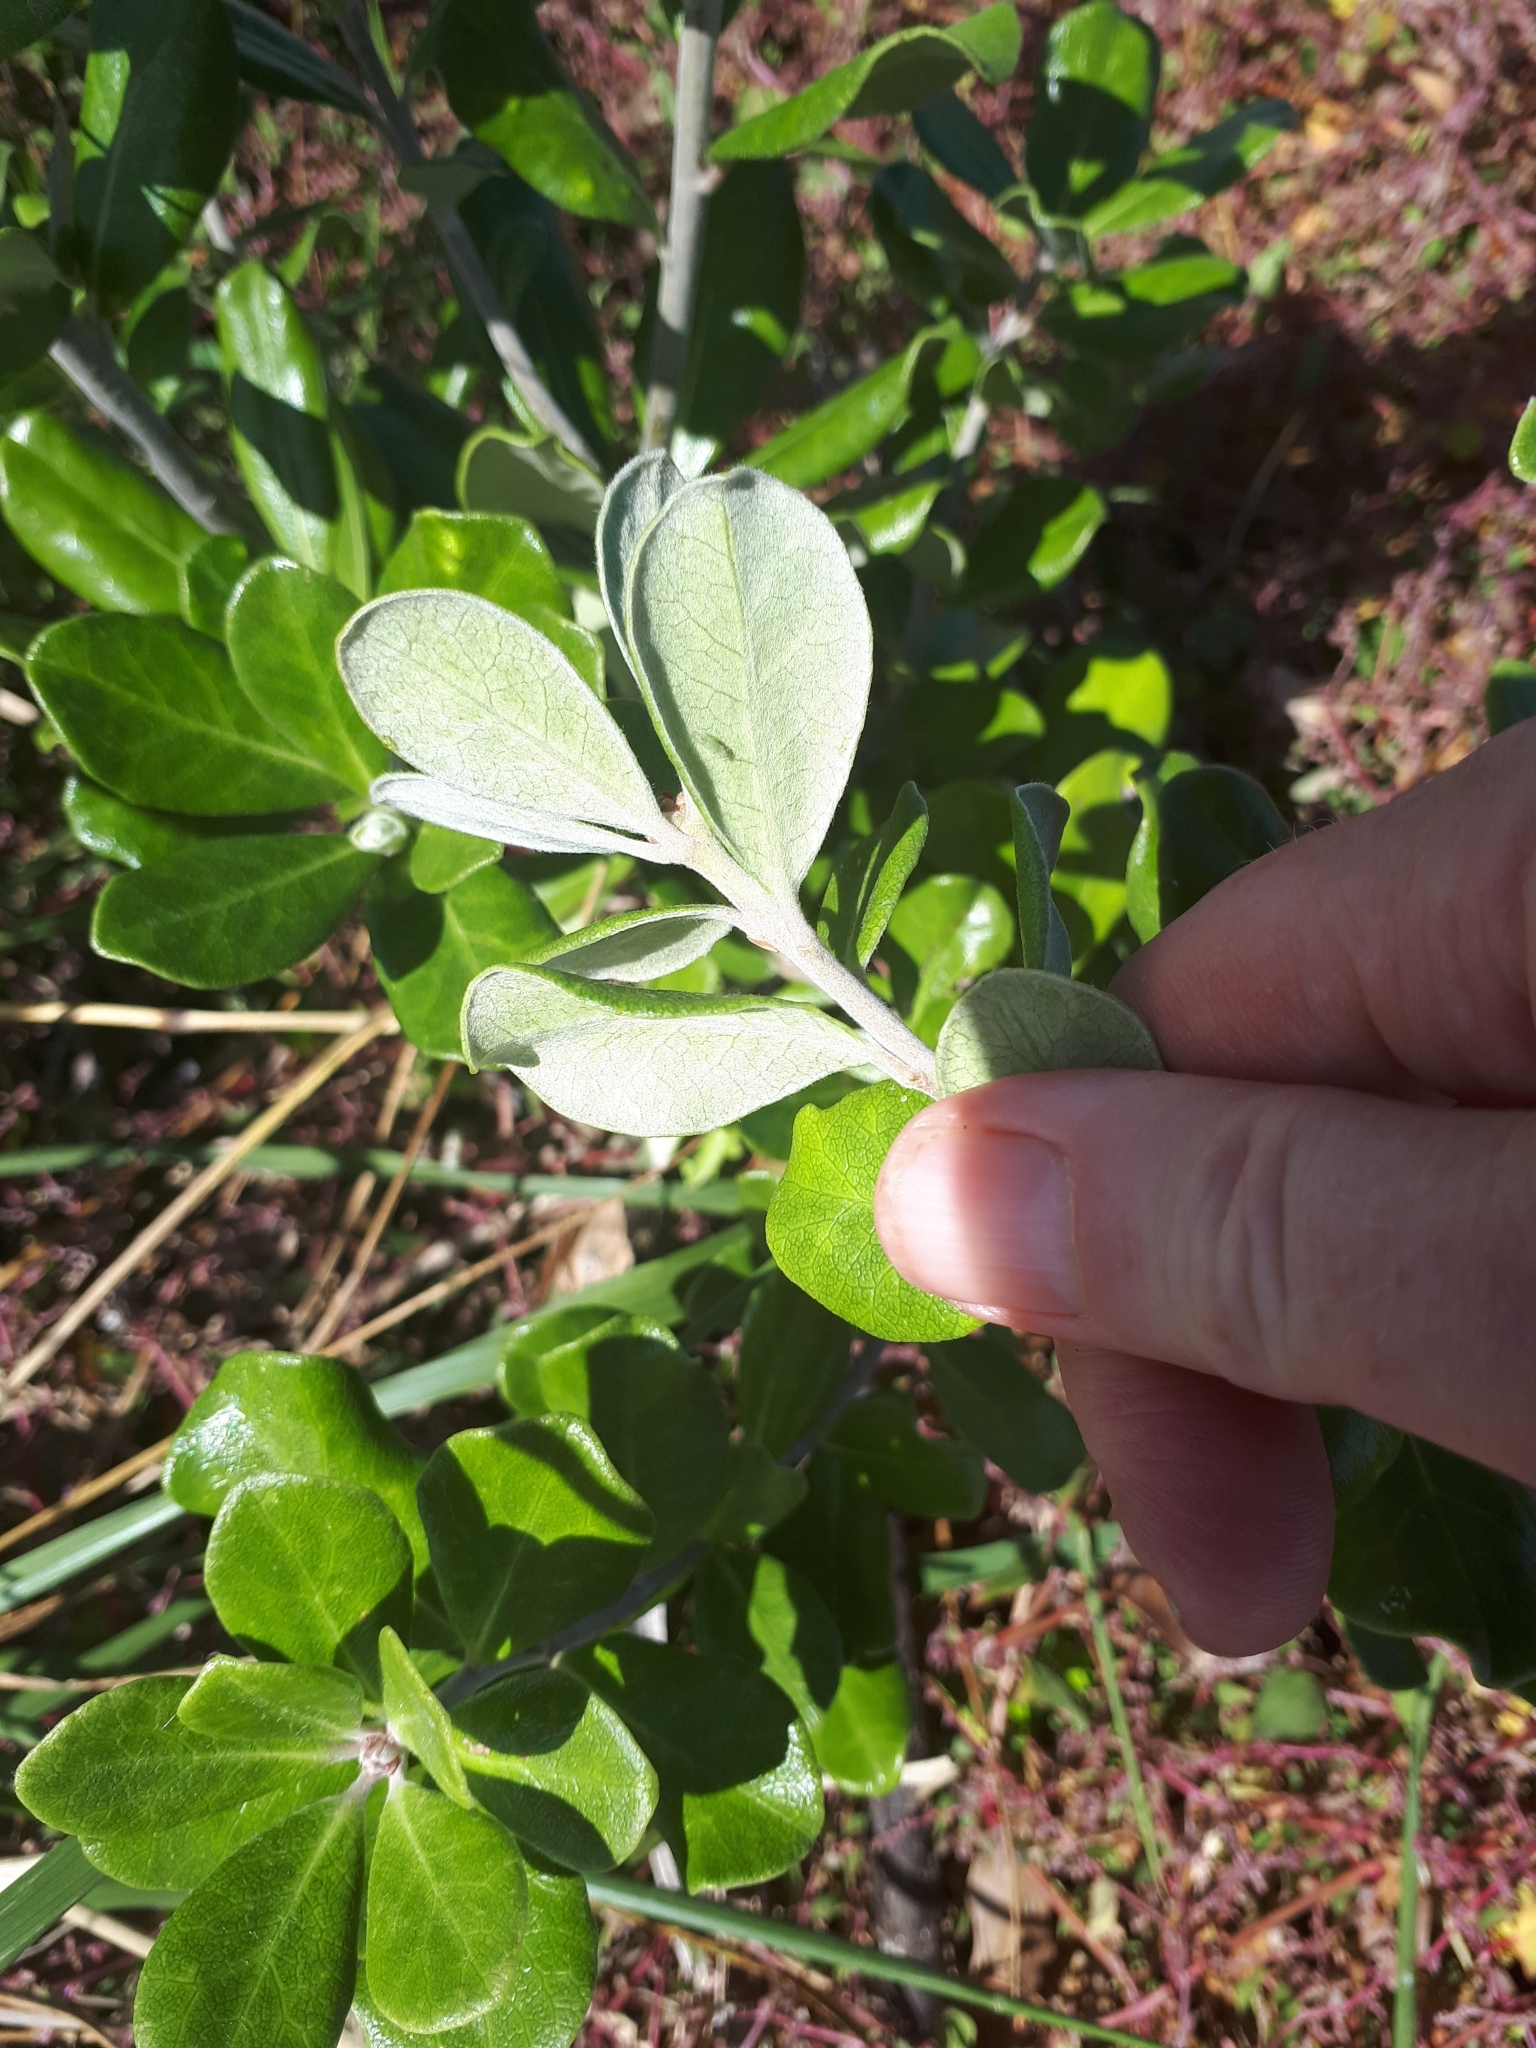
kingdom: Plantae
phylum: Tracheophyta
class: Magnoliopsida
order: Apiales
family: Pittosporaceae
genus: Pittosporum
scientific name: Pittosporum crassifolium
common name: Karo
